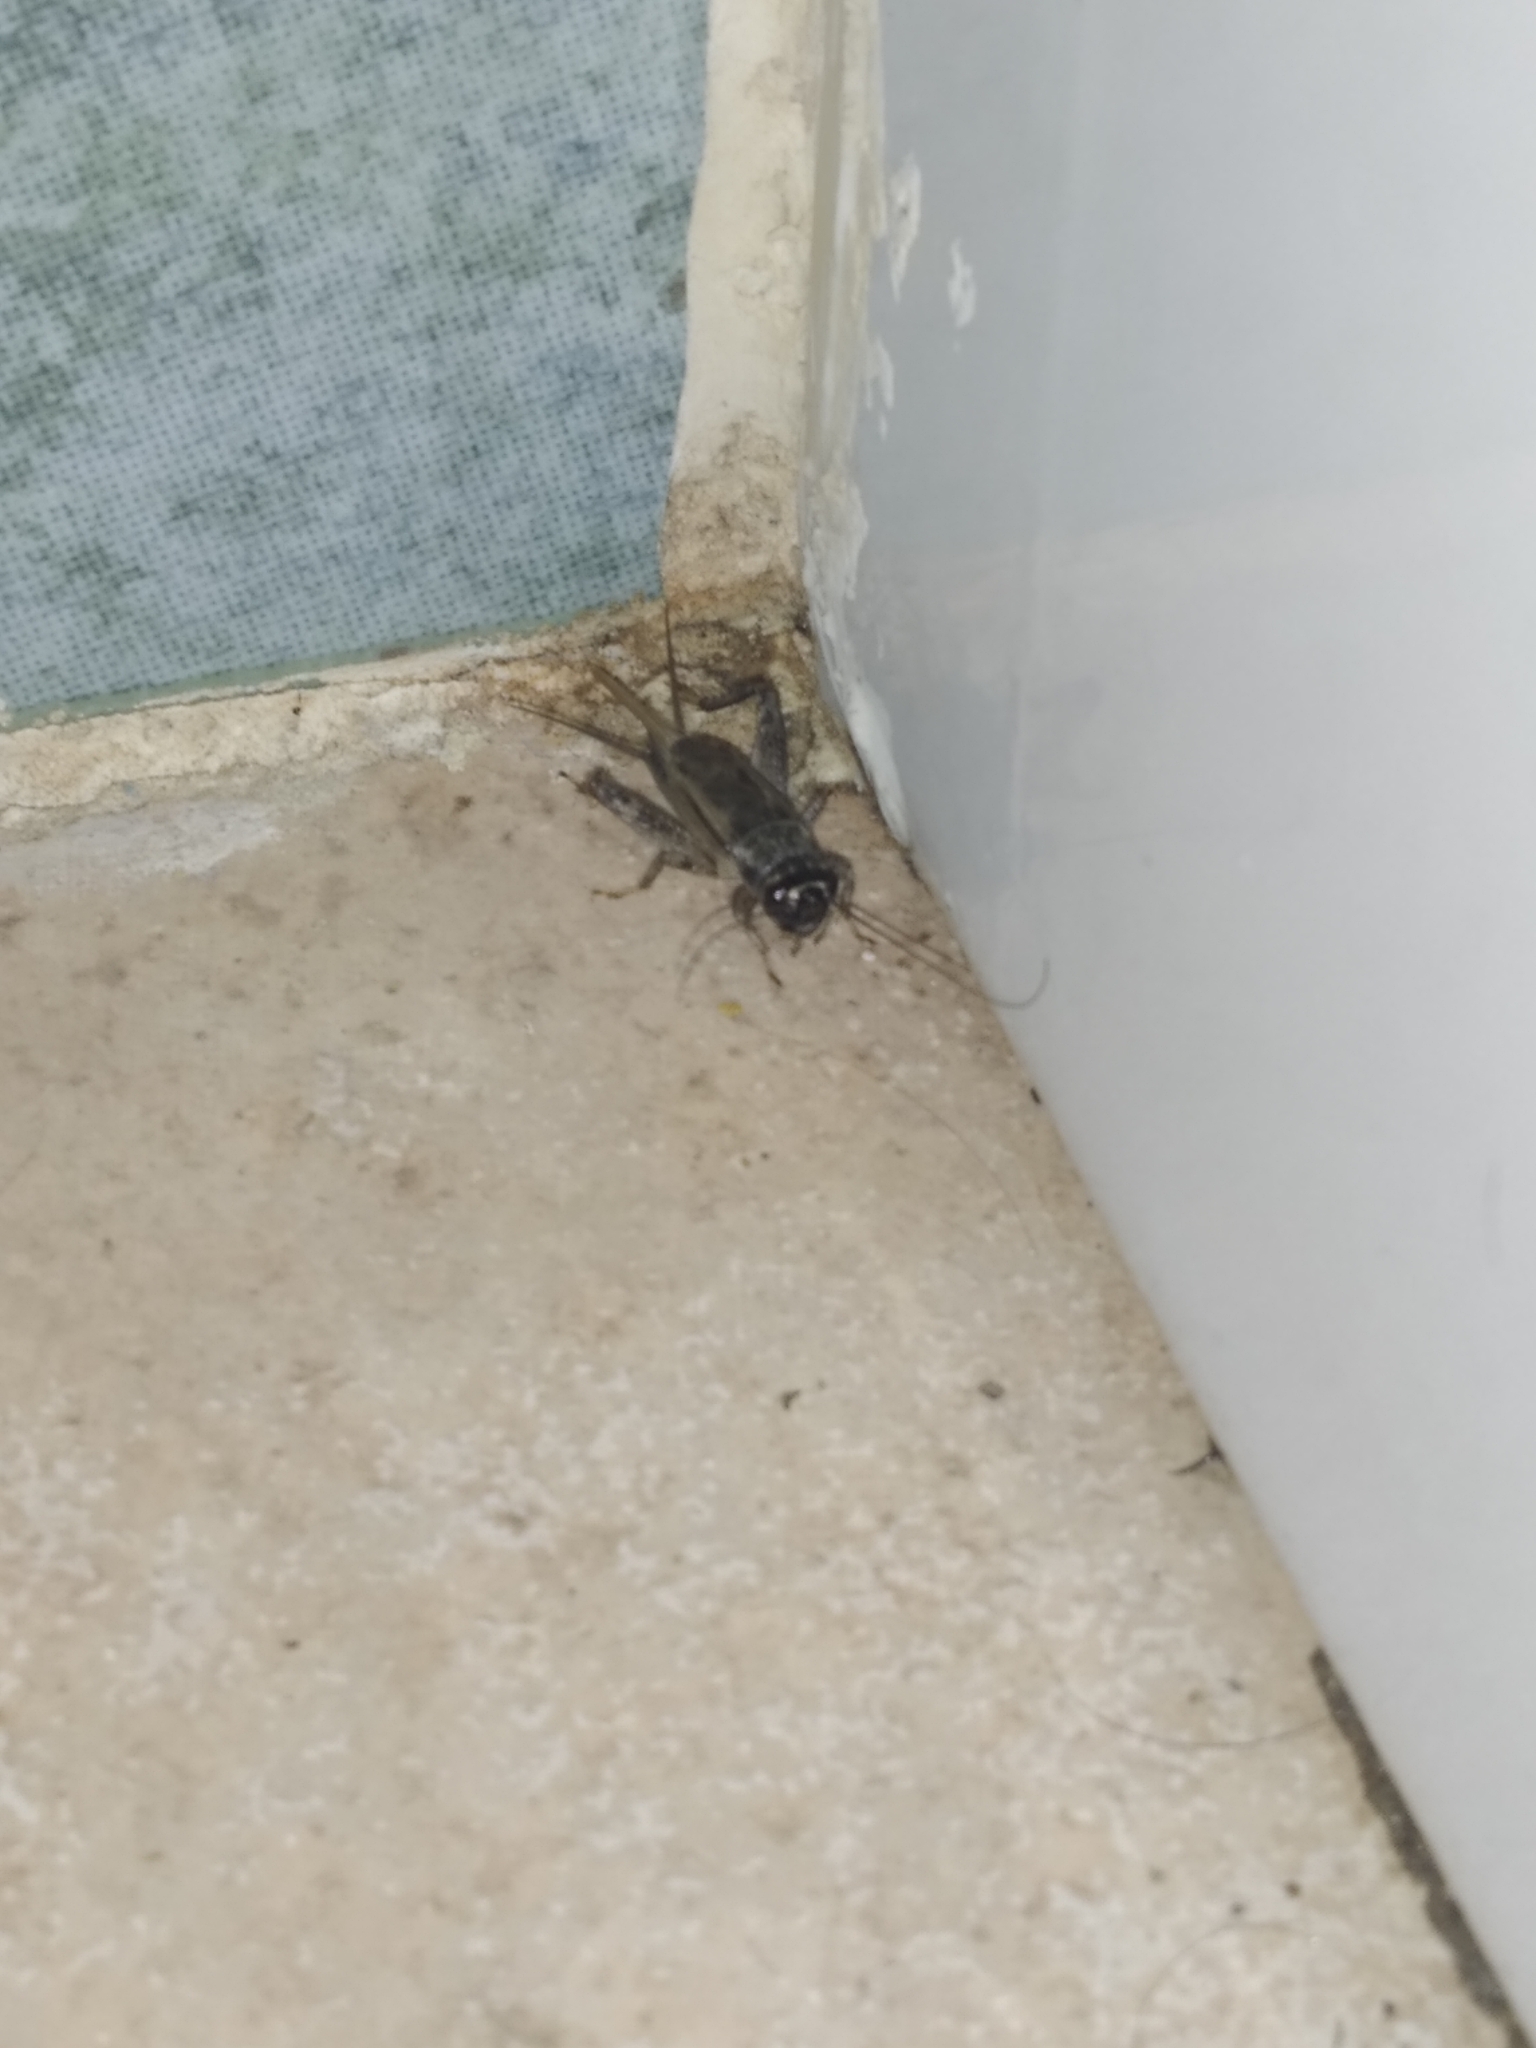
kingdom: Animalia
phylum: Arthropoda
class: Insecta
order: Orthoptera
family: Gryllidae
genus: Eumodicogryllus
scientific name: Eumodicogryllus bordigalensis
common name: Bordeaux cricket
